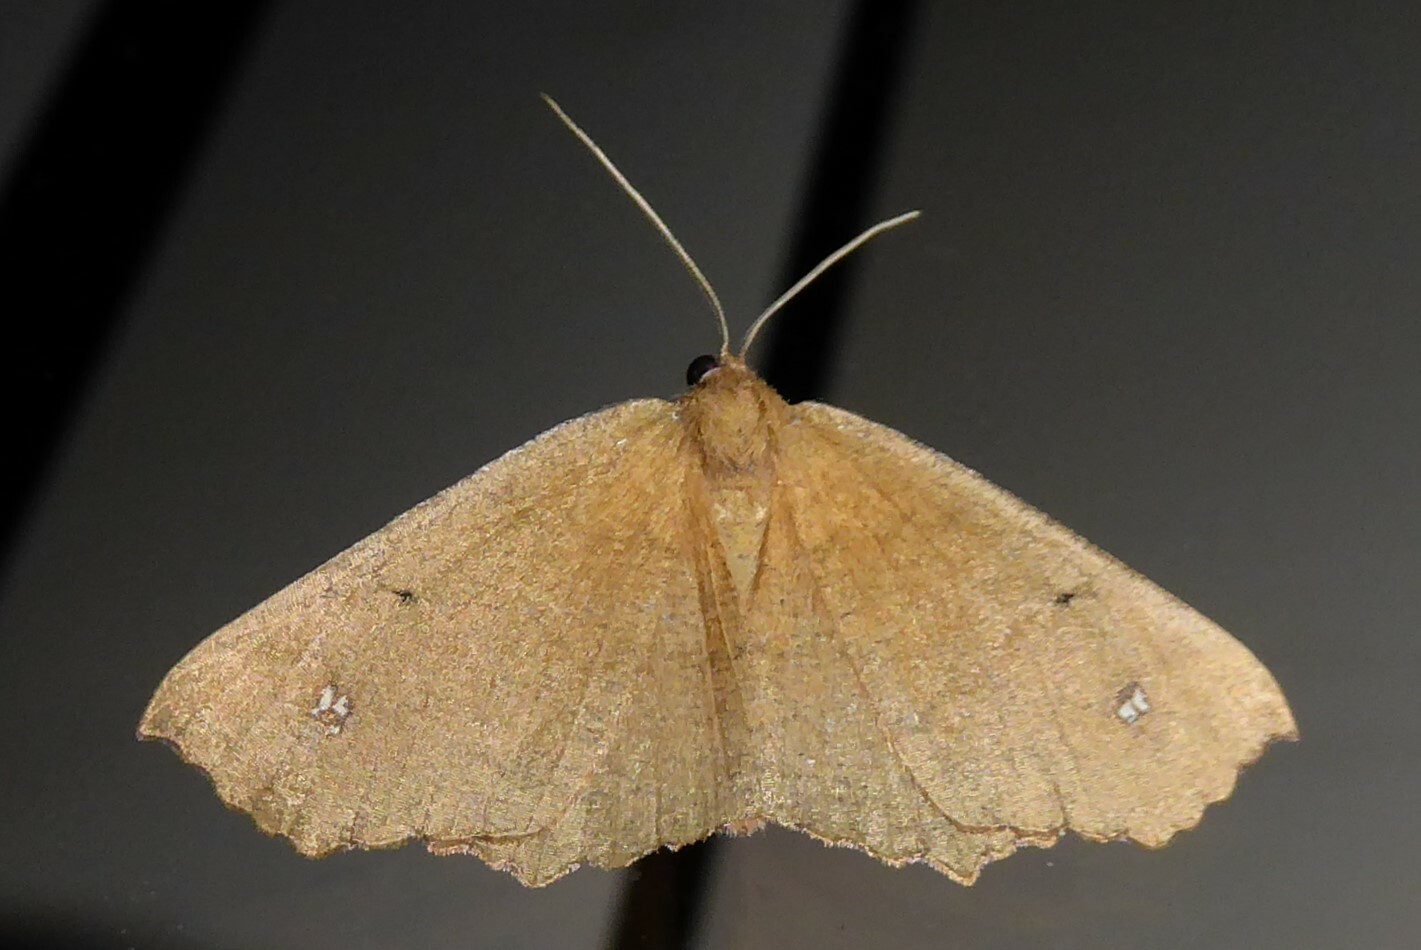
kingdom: Animalia
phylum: Arthropoda
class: Insecta
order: Lepidoptera
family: Geometridae
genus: Xyridacma
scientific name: Xyridacma ustaria
